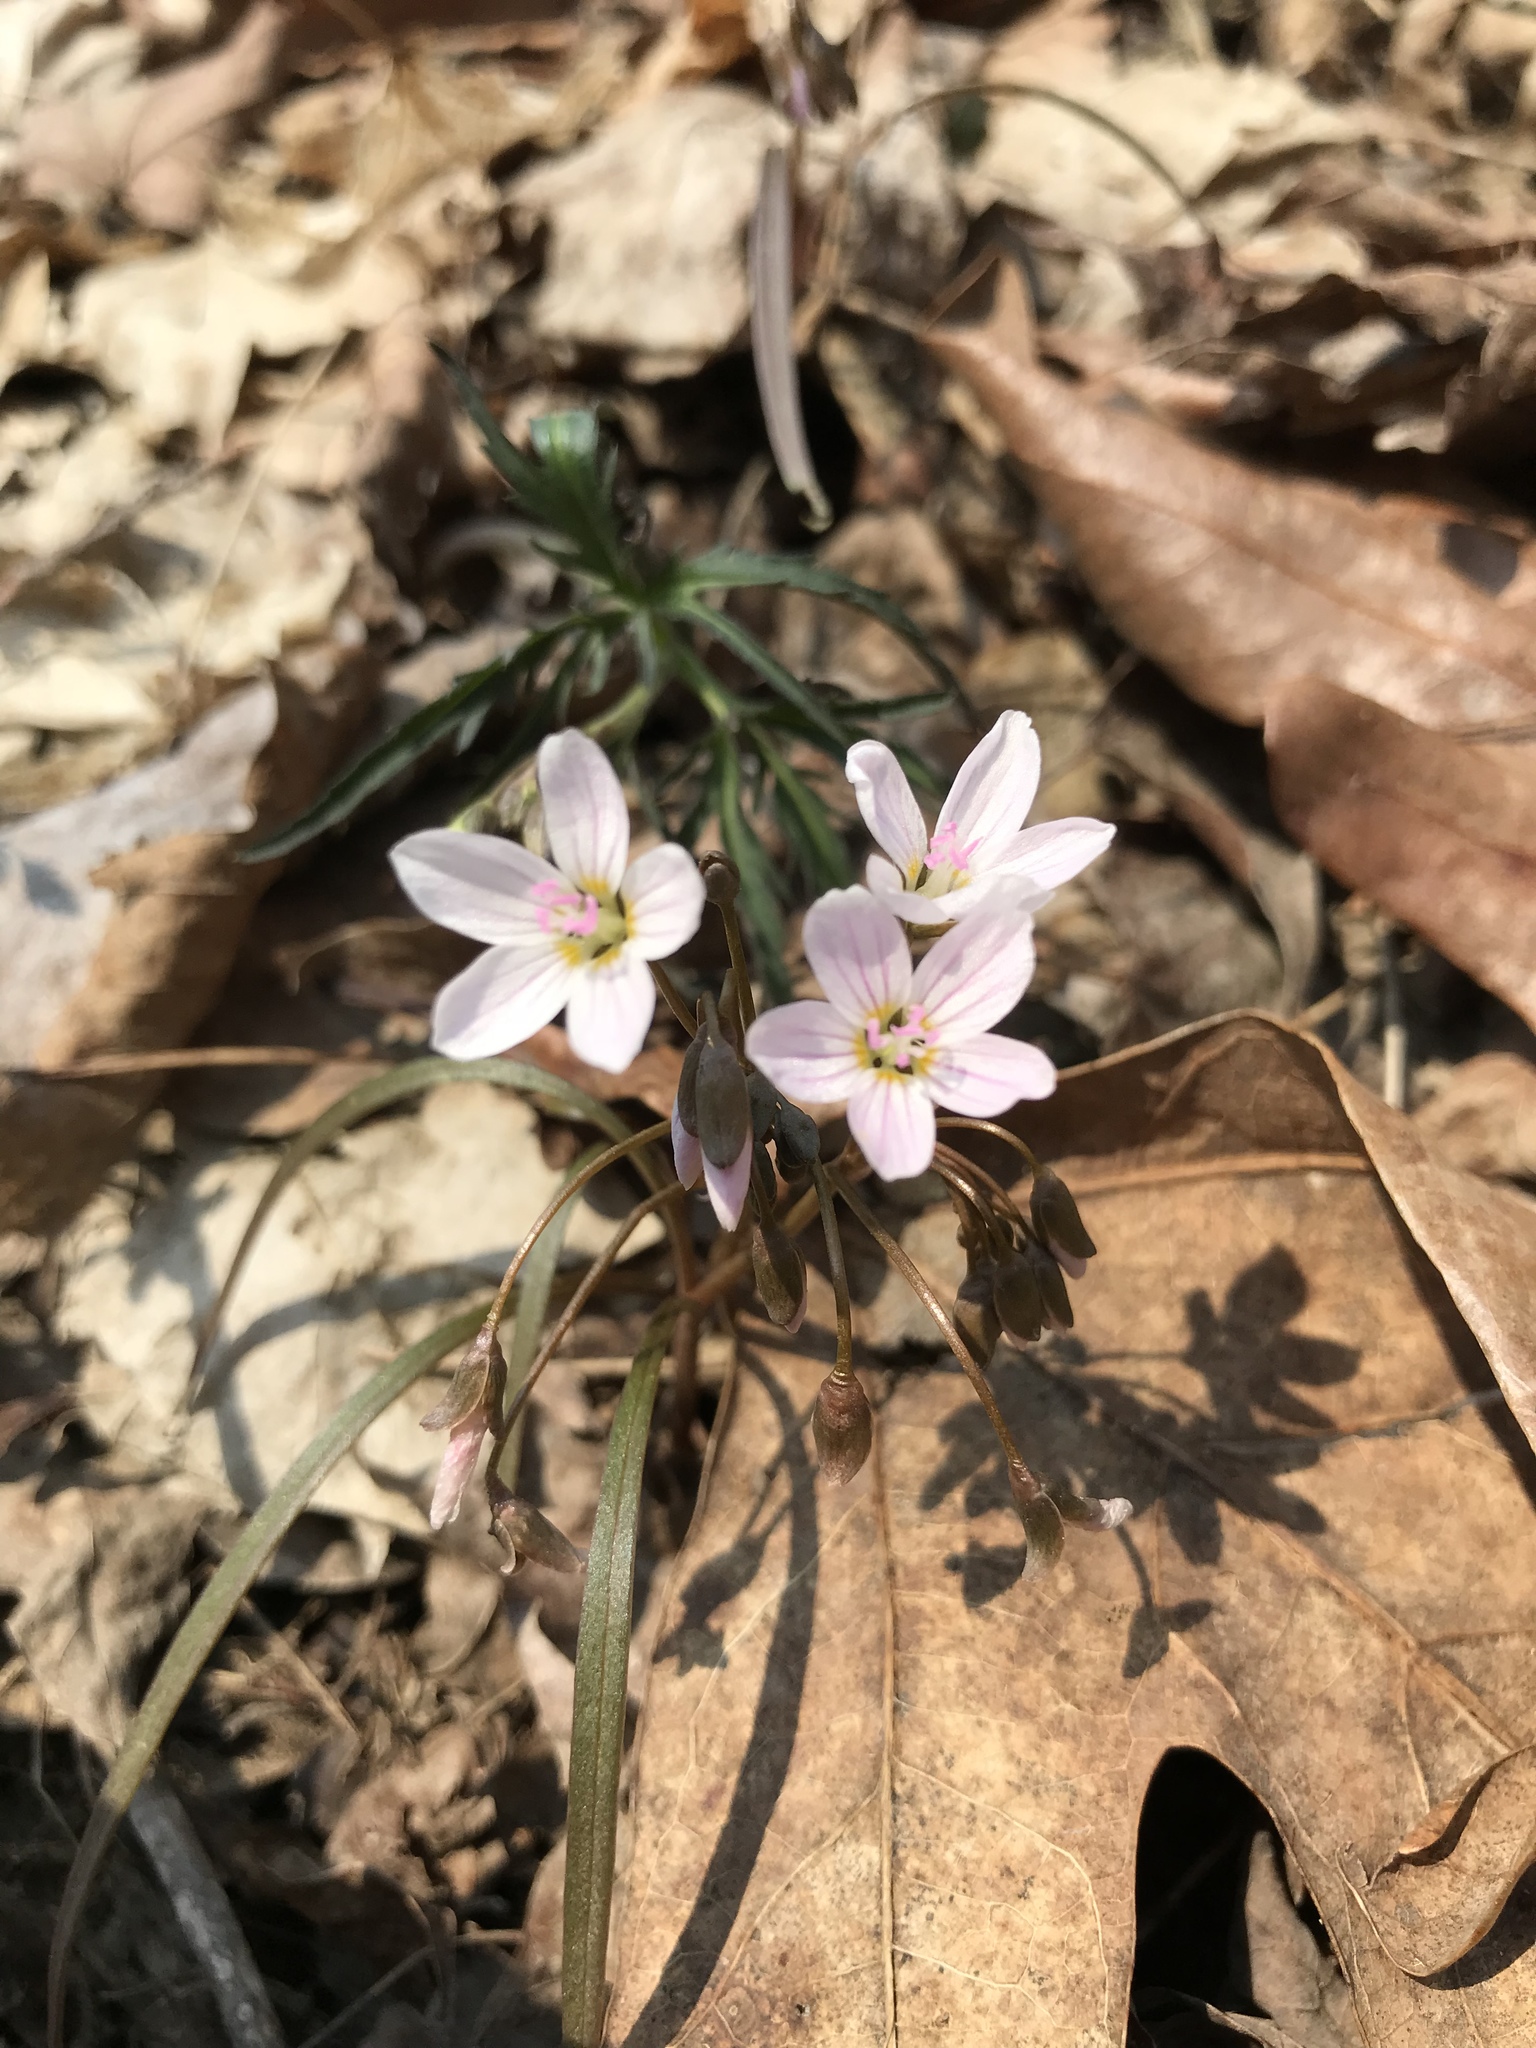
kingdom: Plantae
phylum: Tracheophyta
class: Magnoliopsida
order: Caryophyllales
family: Montiaceae
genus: Claytonia
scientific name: Claytonia virginica
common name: Virginia springbeauty
